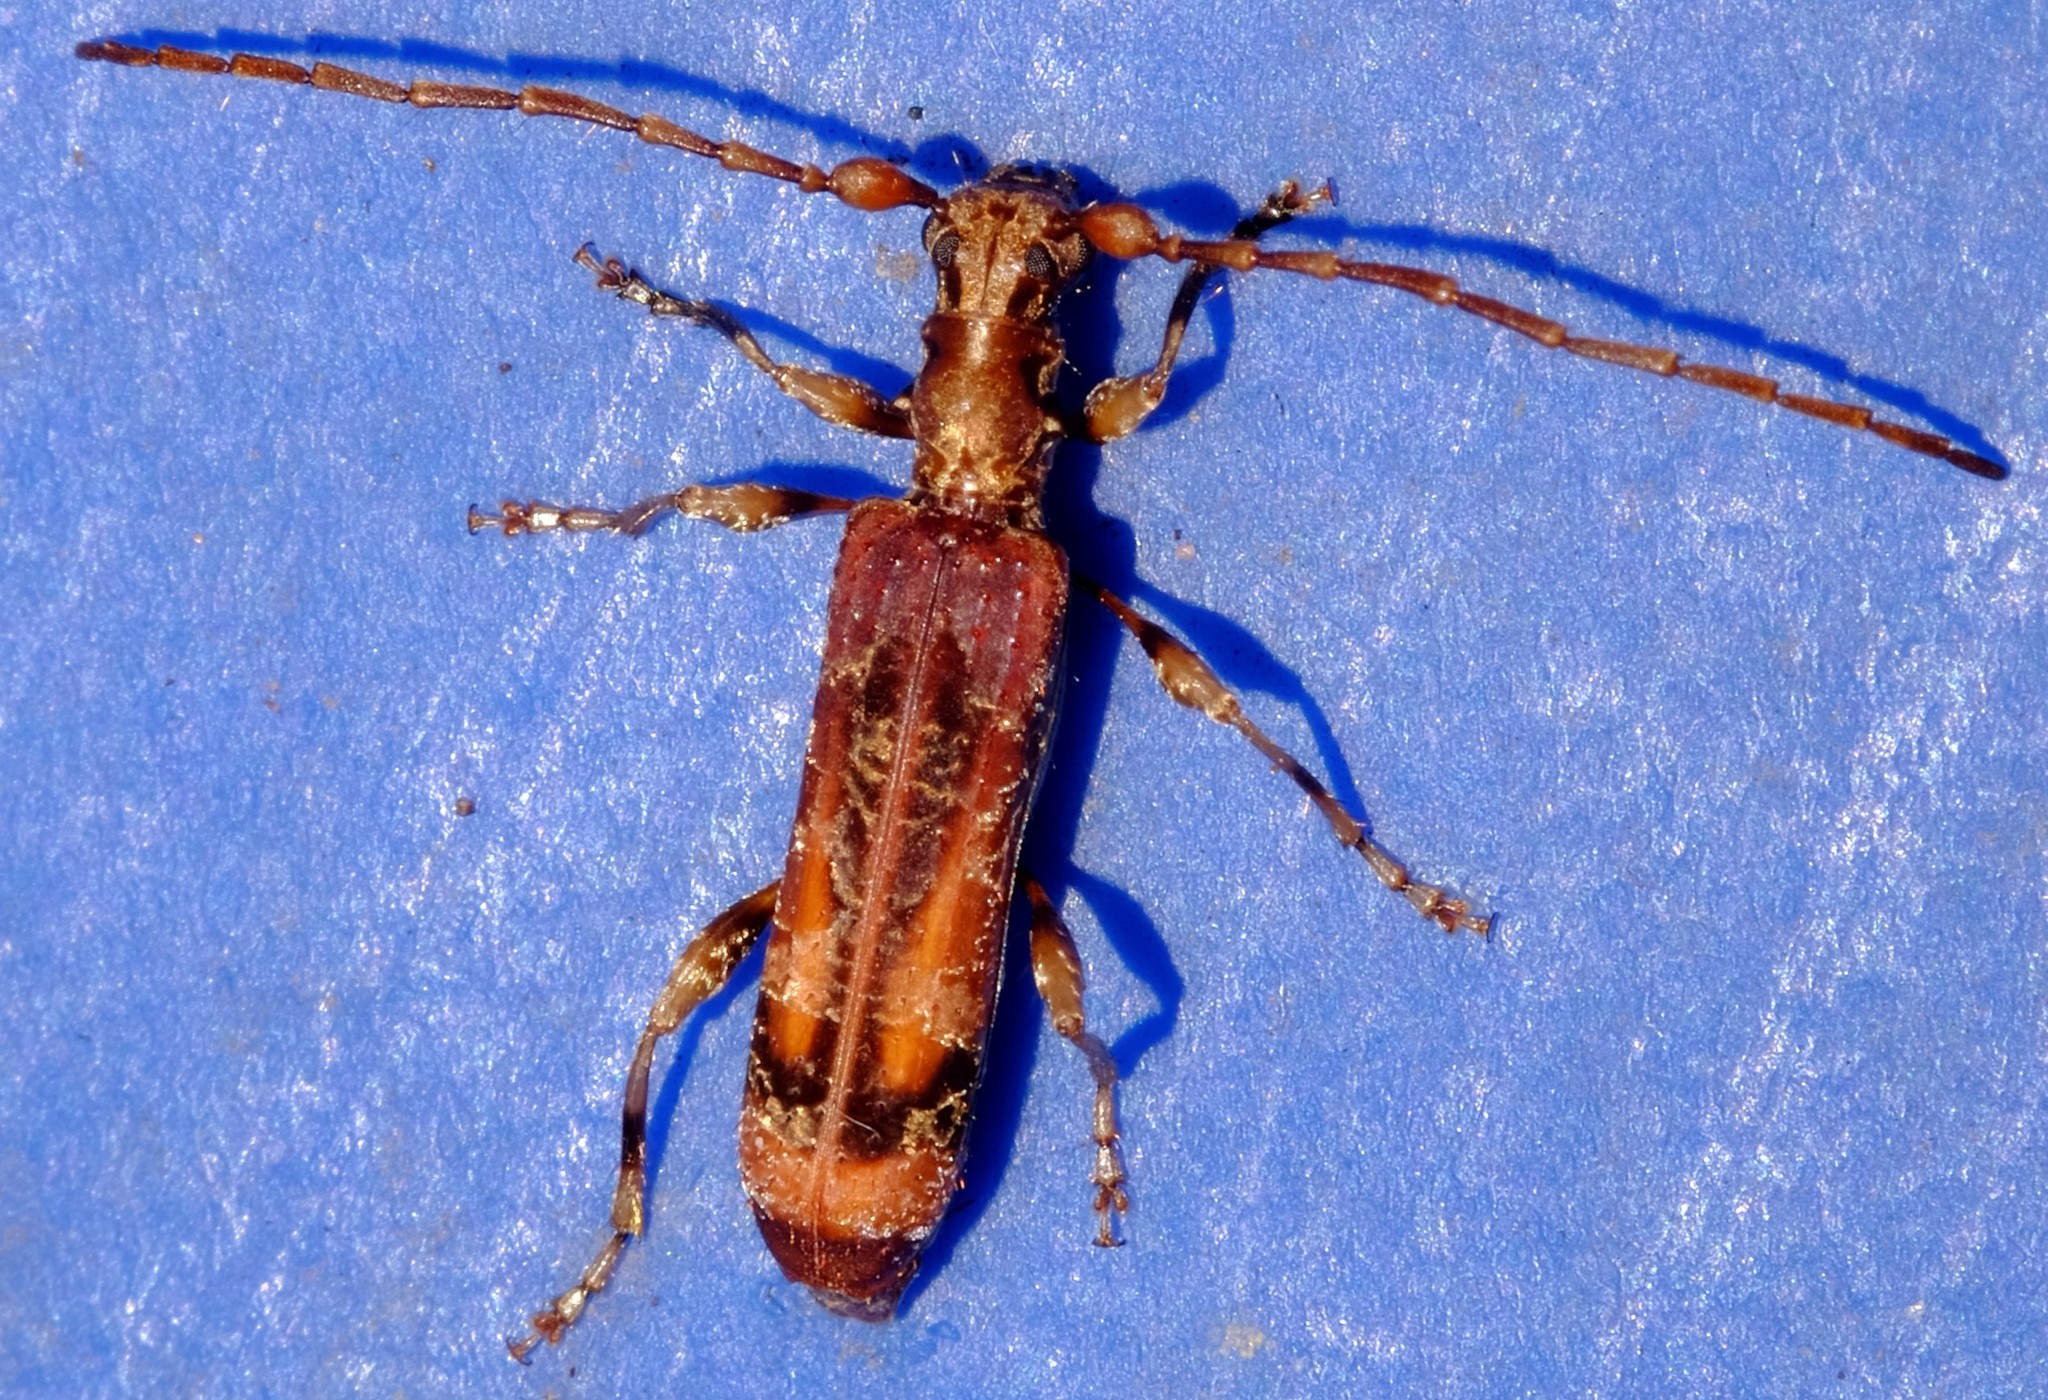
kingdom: Animalia
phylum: Arthropoda
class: Insecta
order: Coleoptera
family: Cerambycidae
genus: Tessaromma
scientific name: Tessaromma undatum
